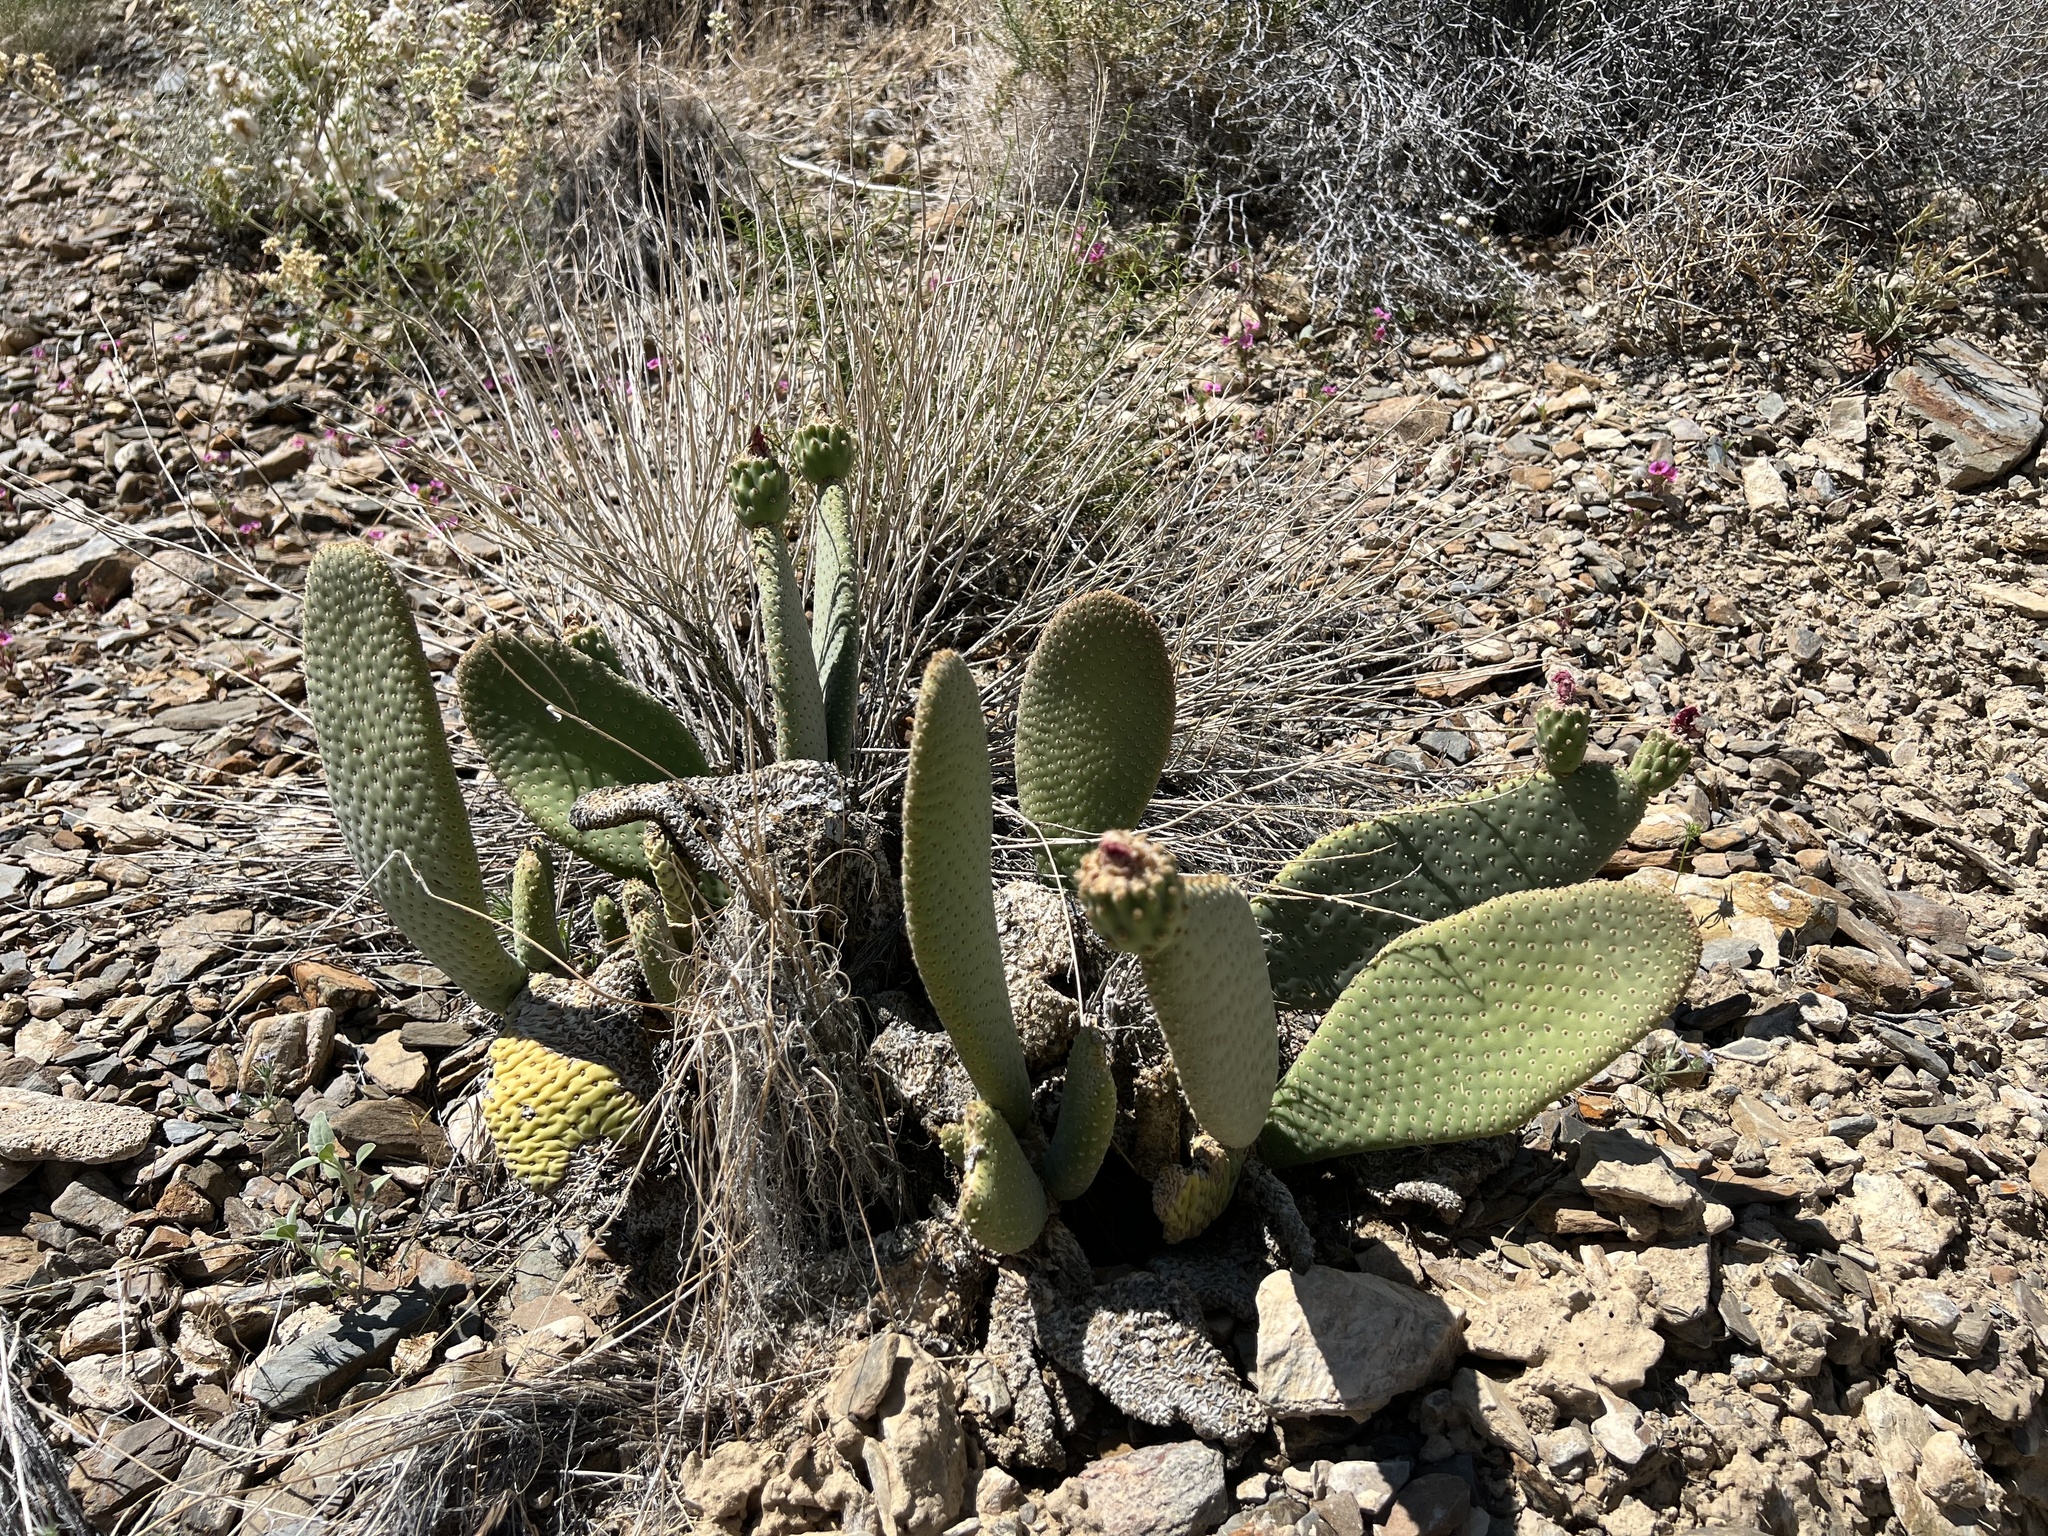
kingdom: Plantae
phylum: Tracheophyta
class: Magnoliopsida
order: Caryophyllales
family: Cactaceae
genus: Opuntia
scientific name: Opuntia basilaris
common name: Beavertail prickly-pear
